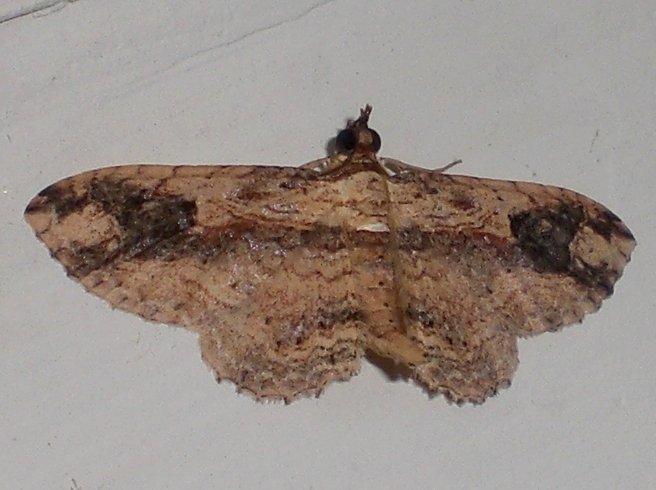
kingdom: Animalia
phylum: Arthropoda
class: Insecta
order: Lepidoptera
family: Geometridae
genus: Ziridava
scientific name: Ziridava xylinaria
